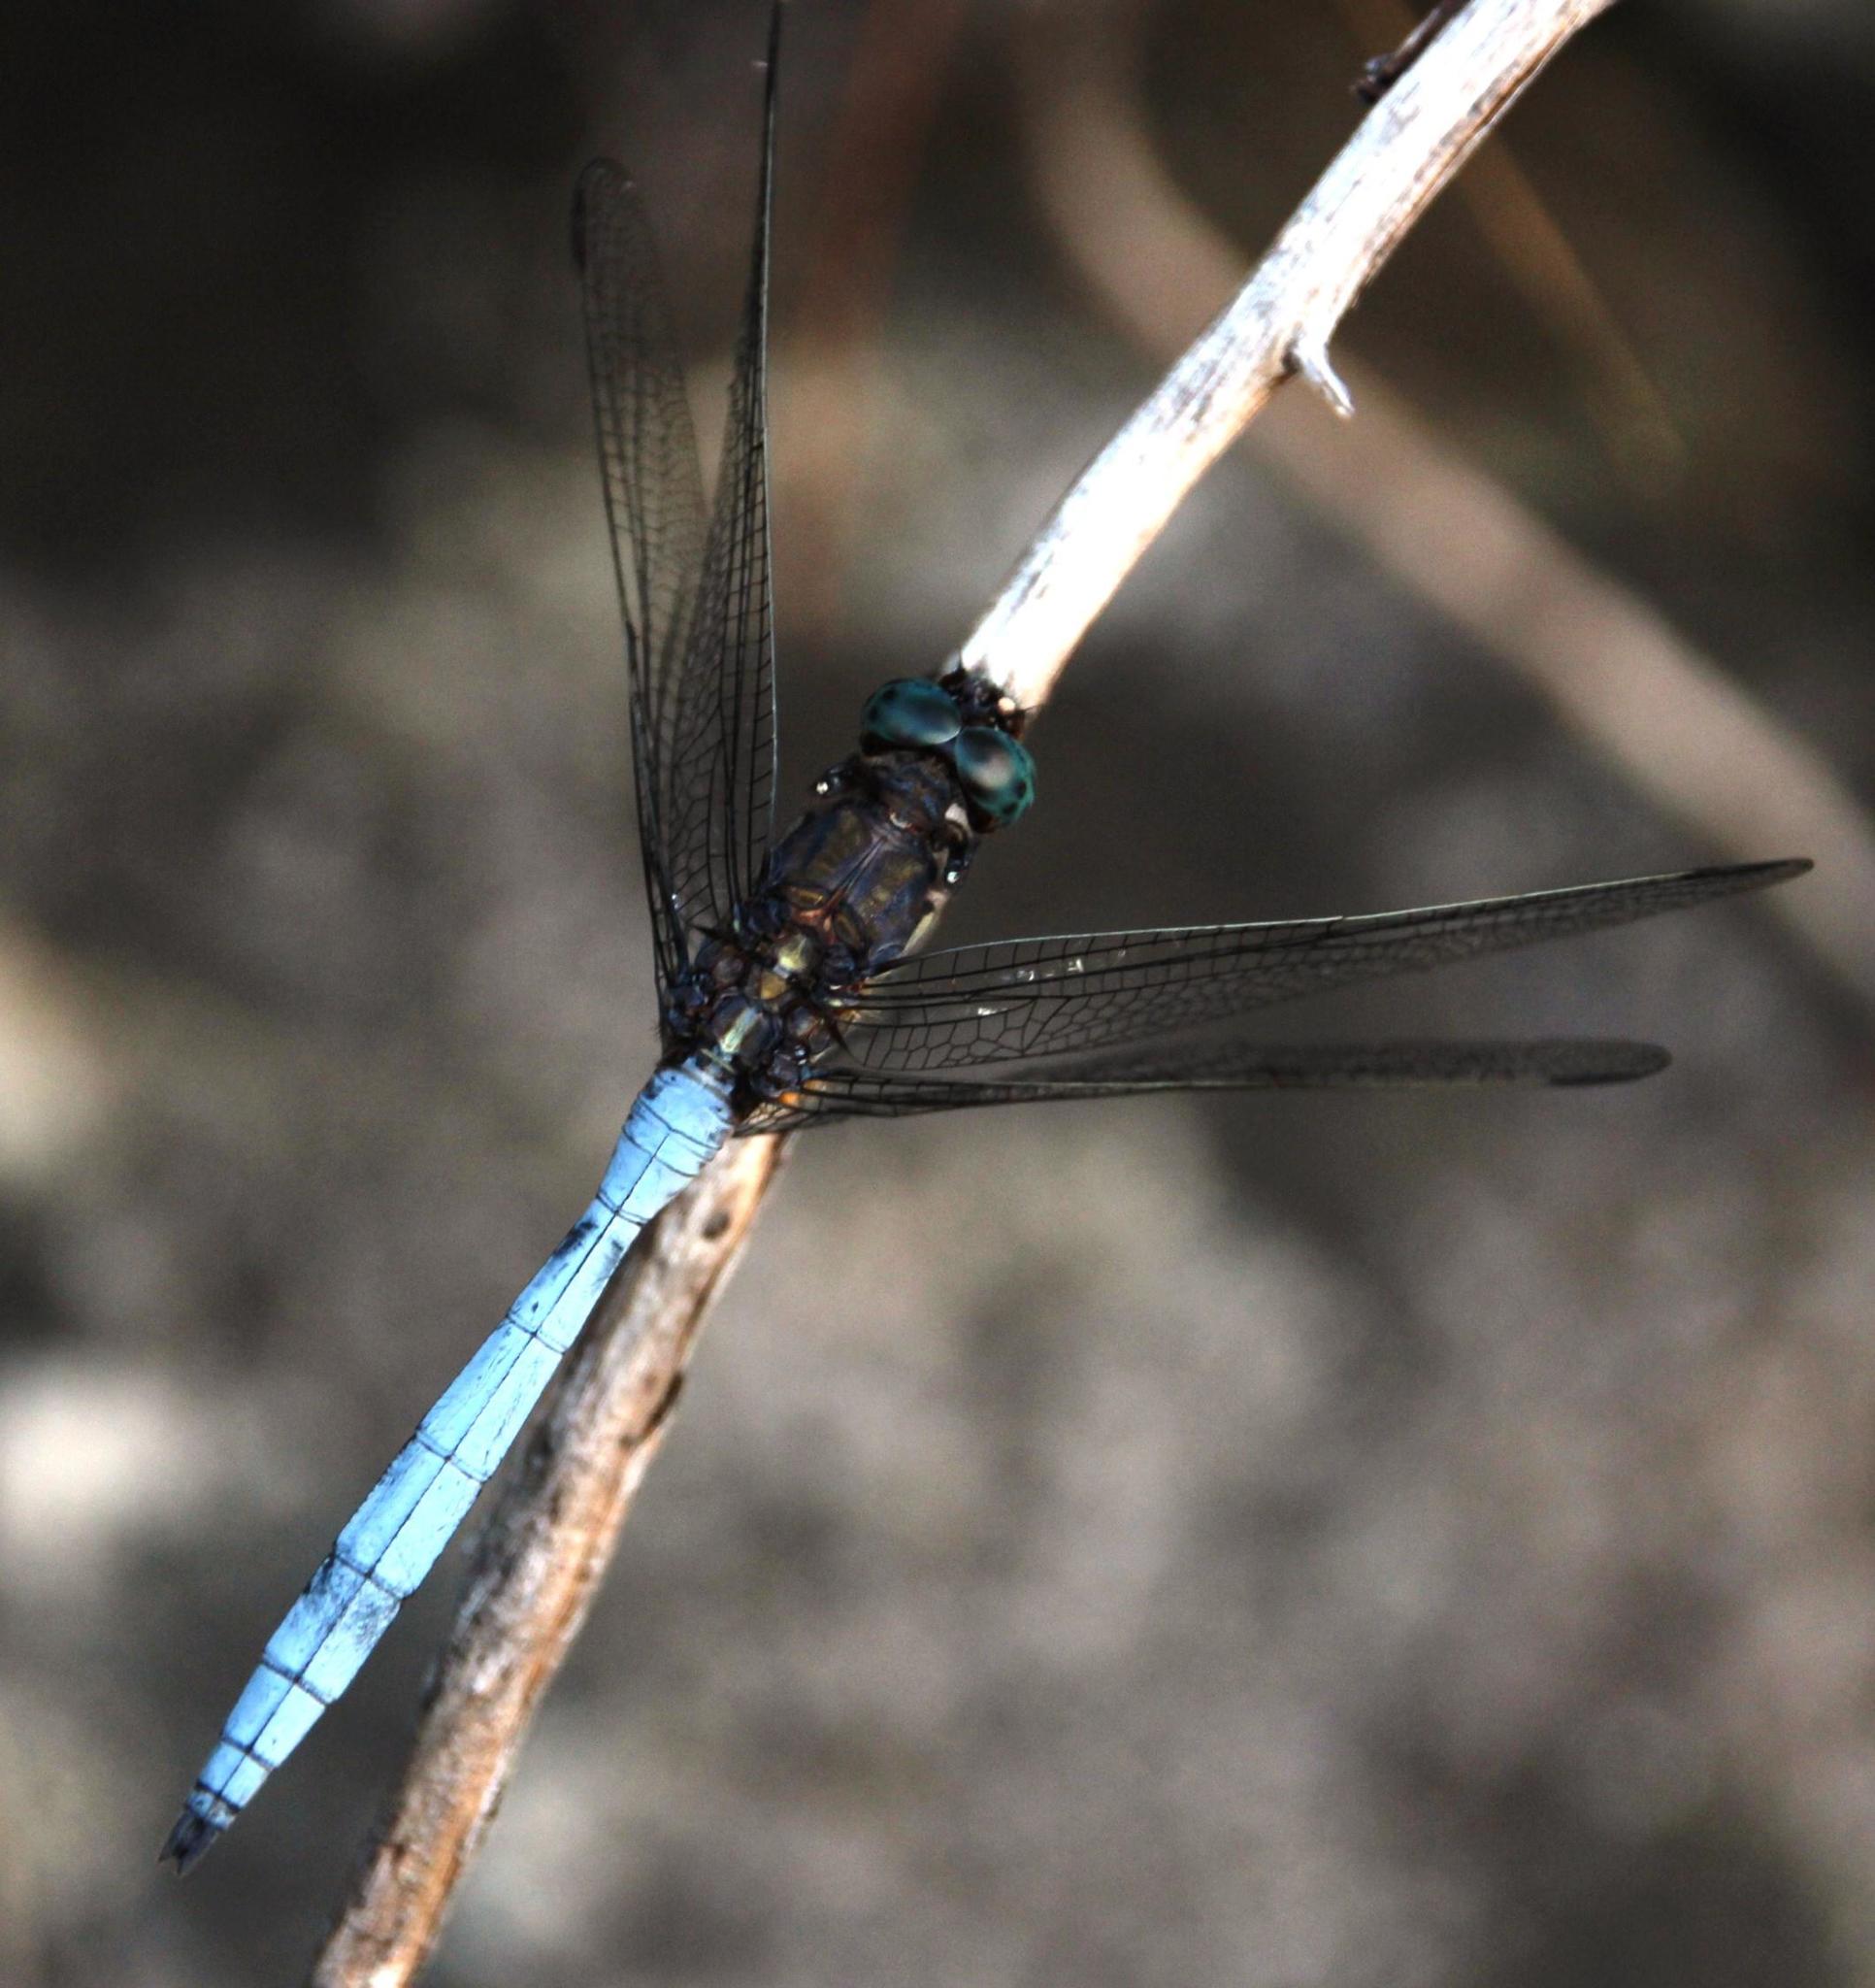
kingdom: Animalia
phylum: Arthropoda
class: Insecta
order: Odonata
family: Libellulidae
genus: Orthetrum
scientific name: Orthetrum julia
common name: Julia skimmer
